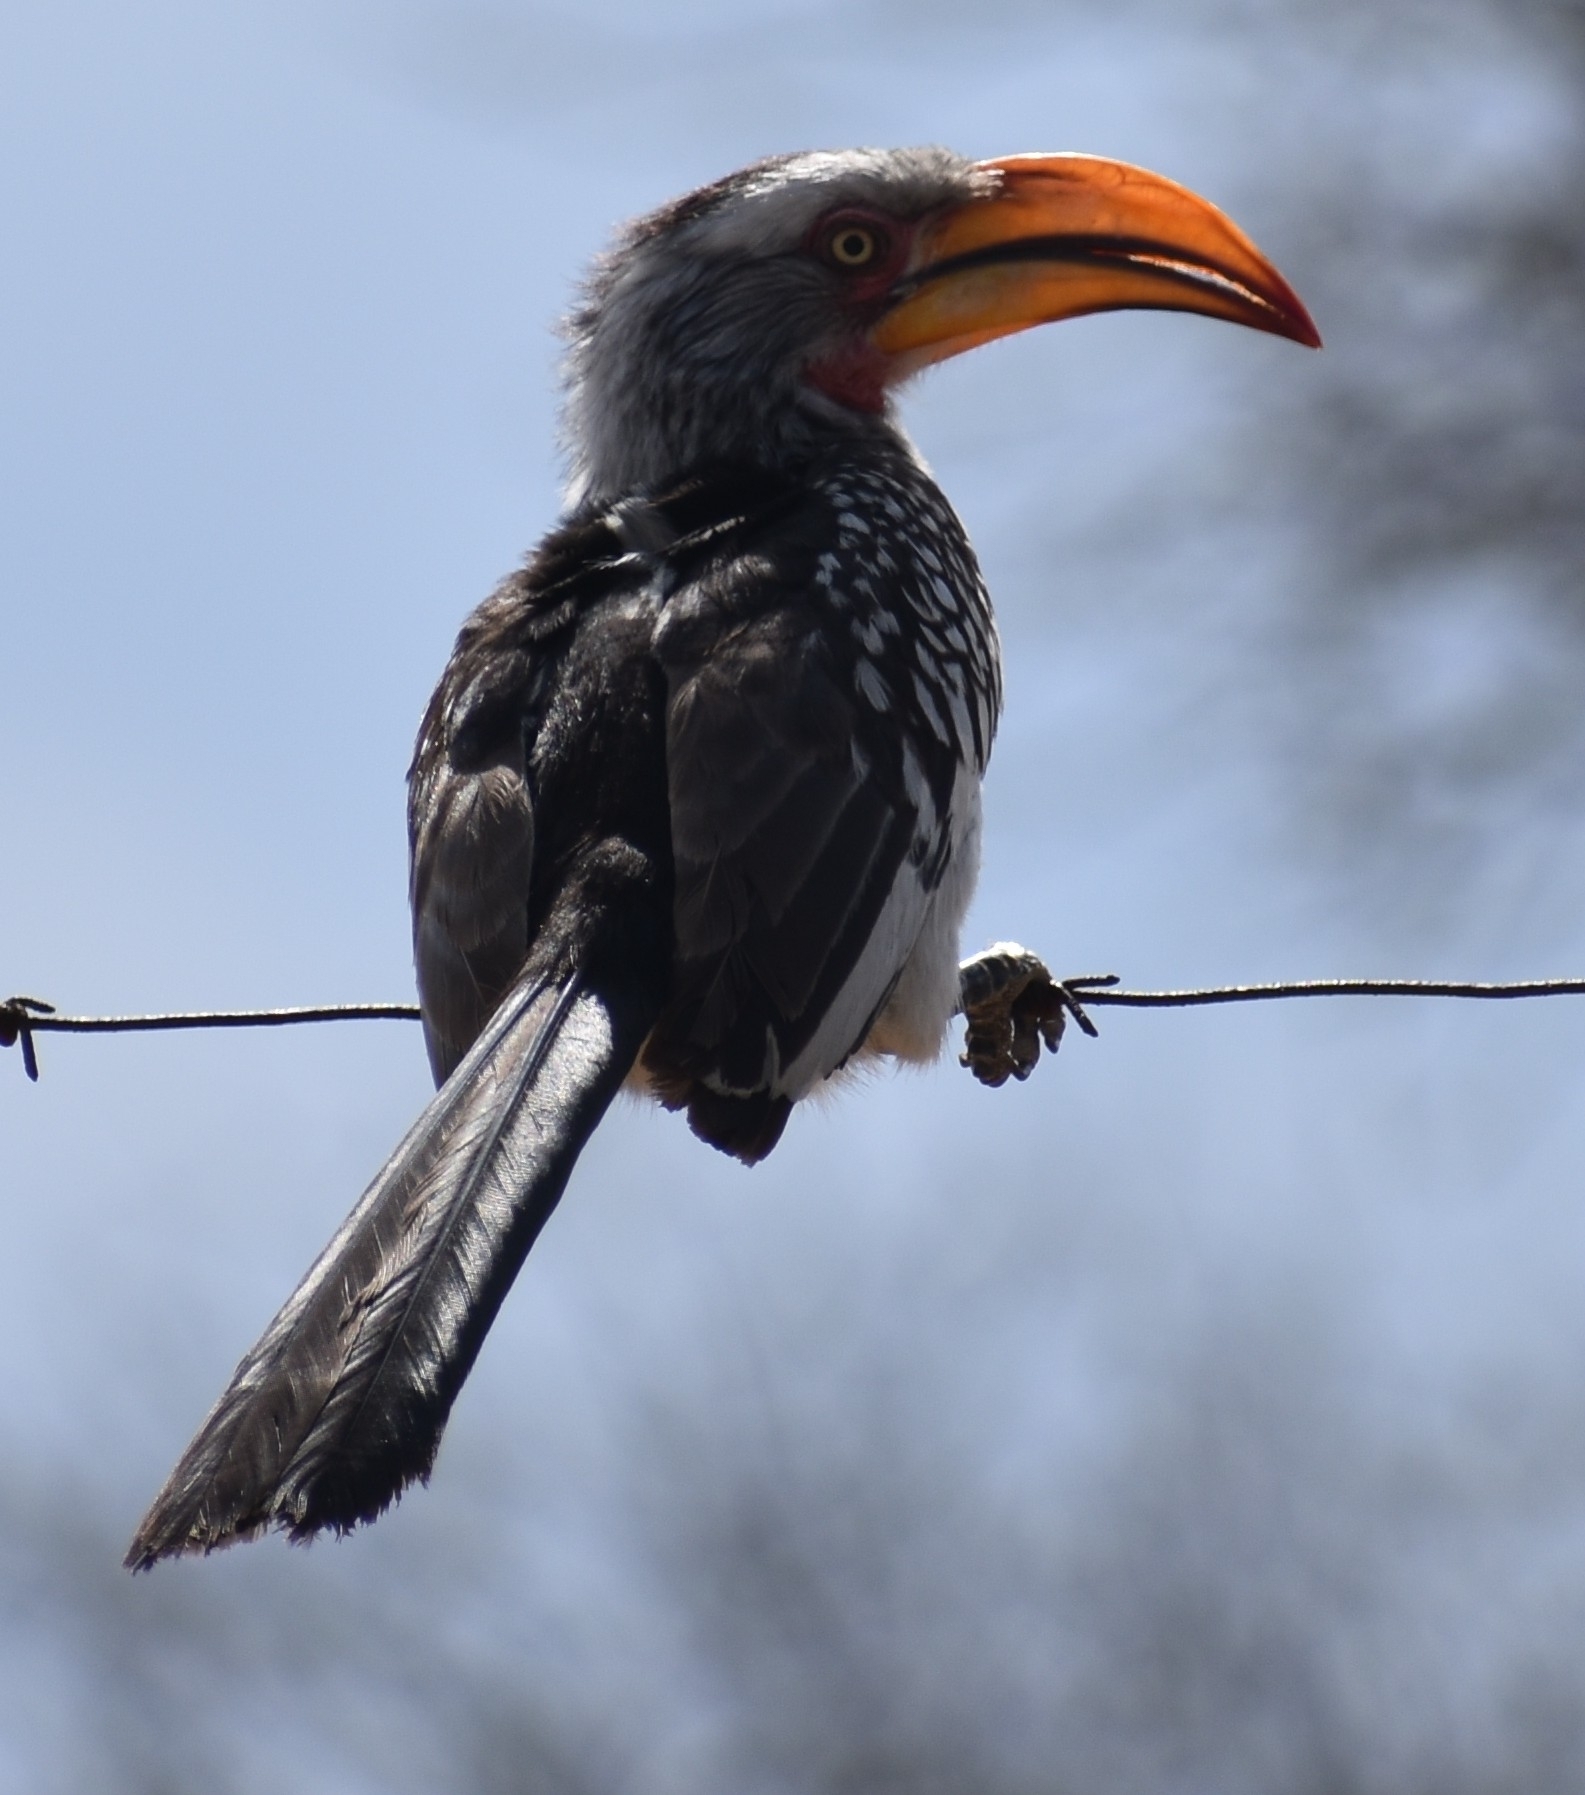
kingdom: Animalia
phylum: Chordata
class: Aves
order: Bucerotiformes
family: Bucerotidae
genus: Tockus
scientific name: Tockus leucomelas
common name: Southern yellow-billed hornbill
